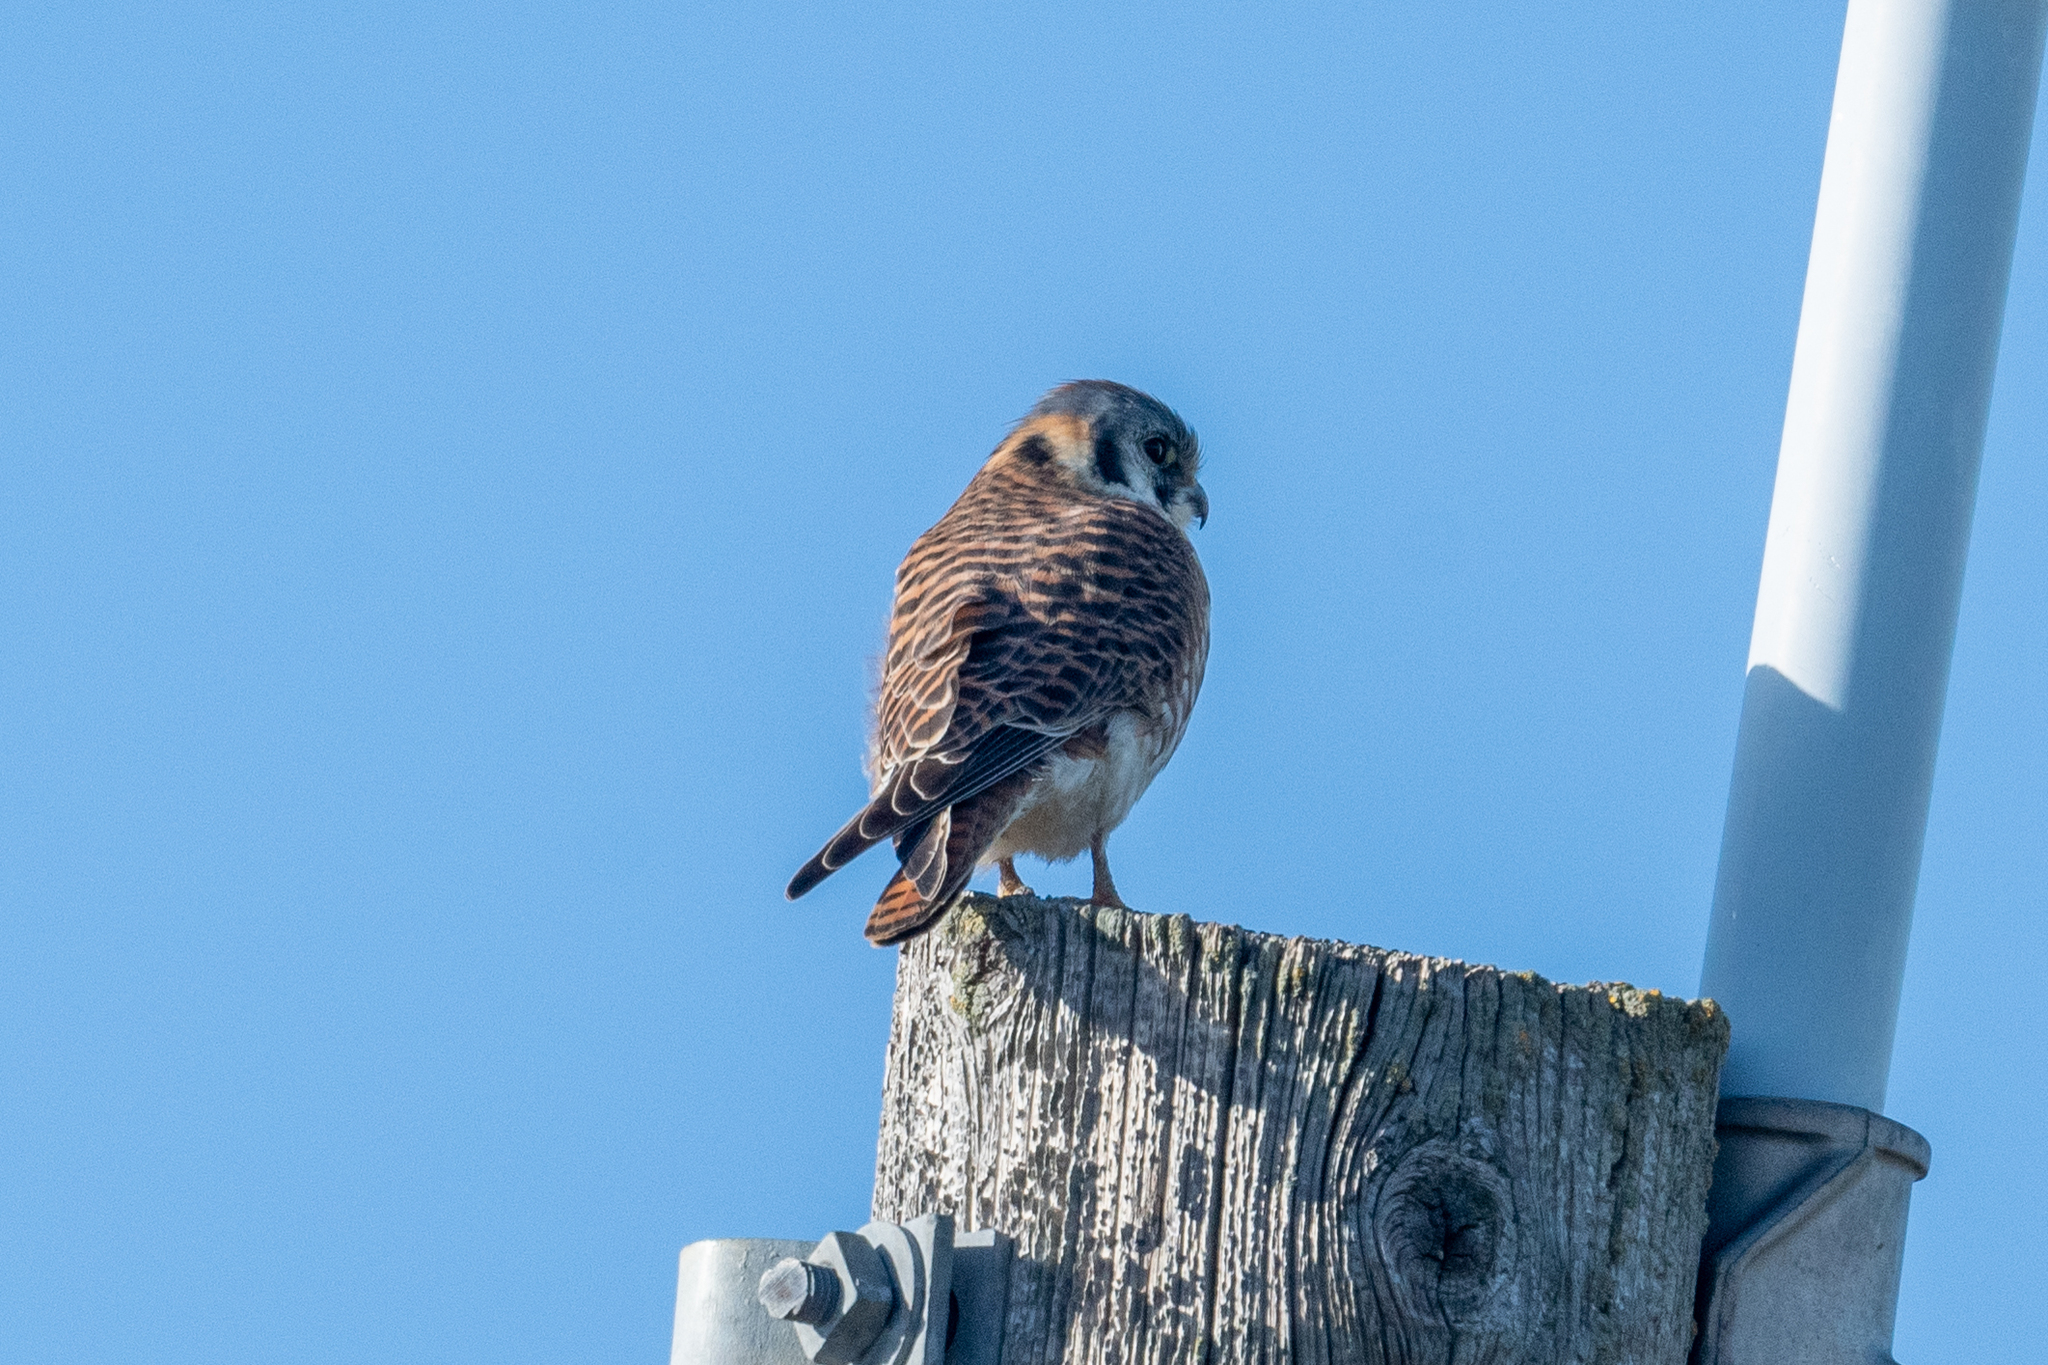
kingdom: Animalia
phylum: Chordata
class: Aves
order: Falconiformes
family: Falconidae
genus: Falco
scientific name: Falco sparverius
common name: American kestrel
